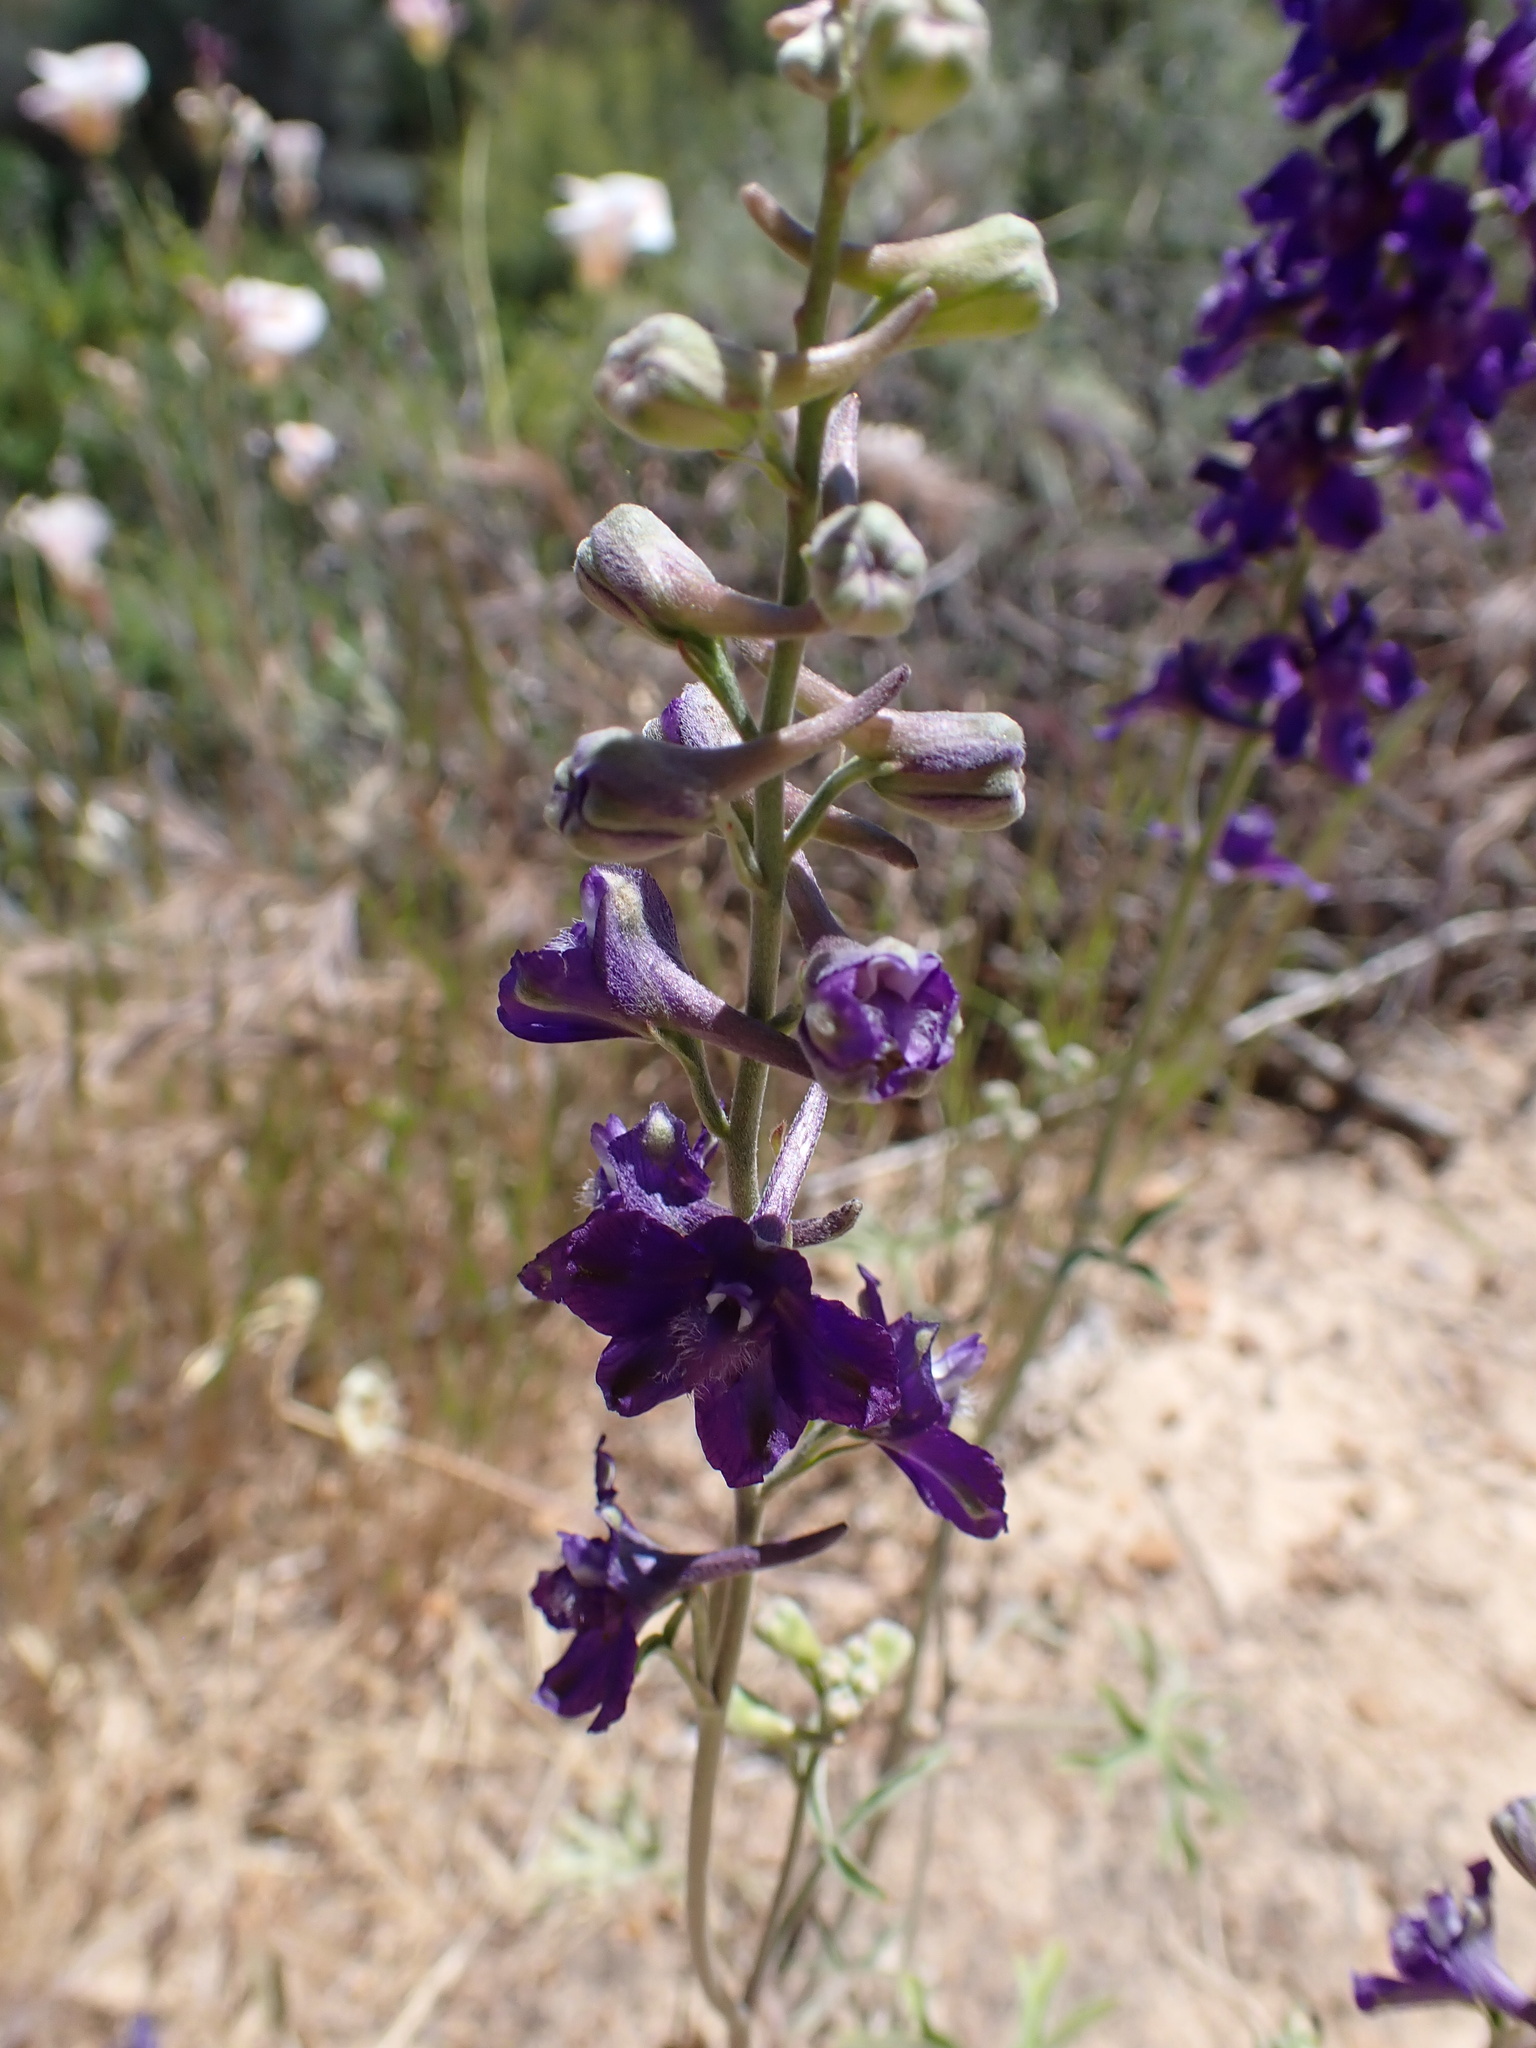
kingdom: Plantae
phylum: Tracheophyta
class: Magnoliopsida
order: Ranunculales
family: Ranunculaceae
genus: Delphinium
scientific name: Delphinium hansenii
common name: Hansen's larkspur
